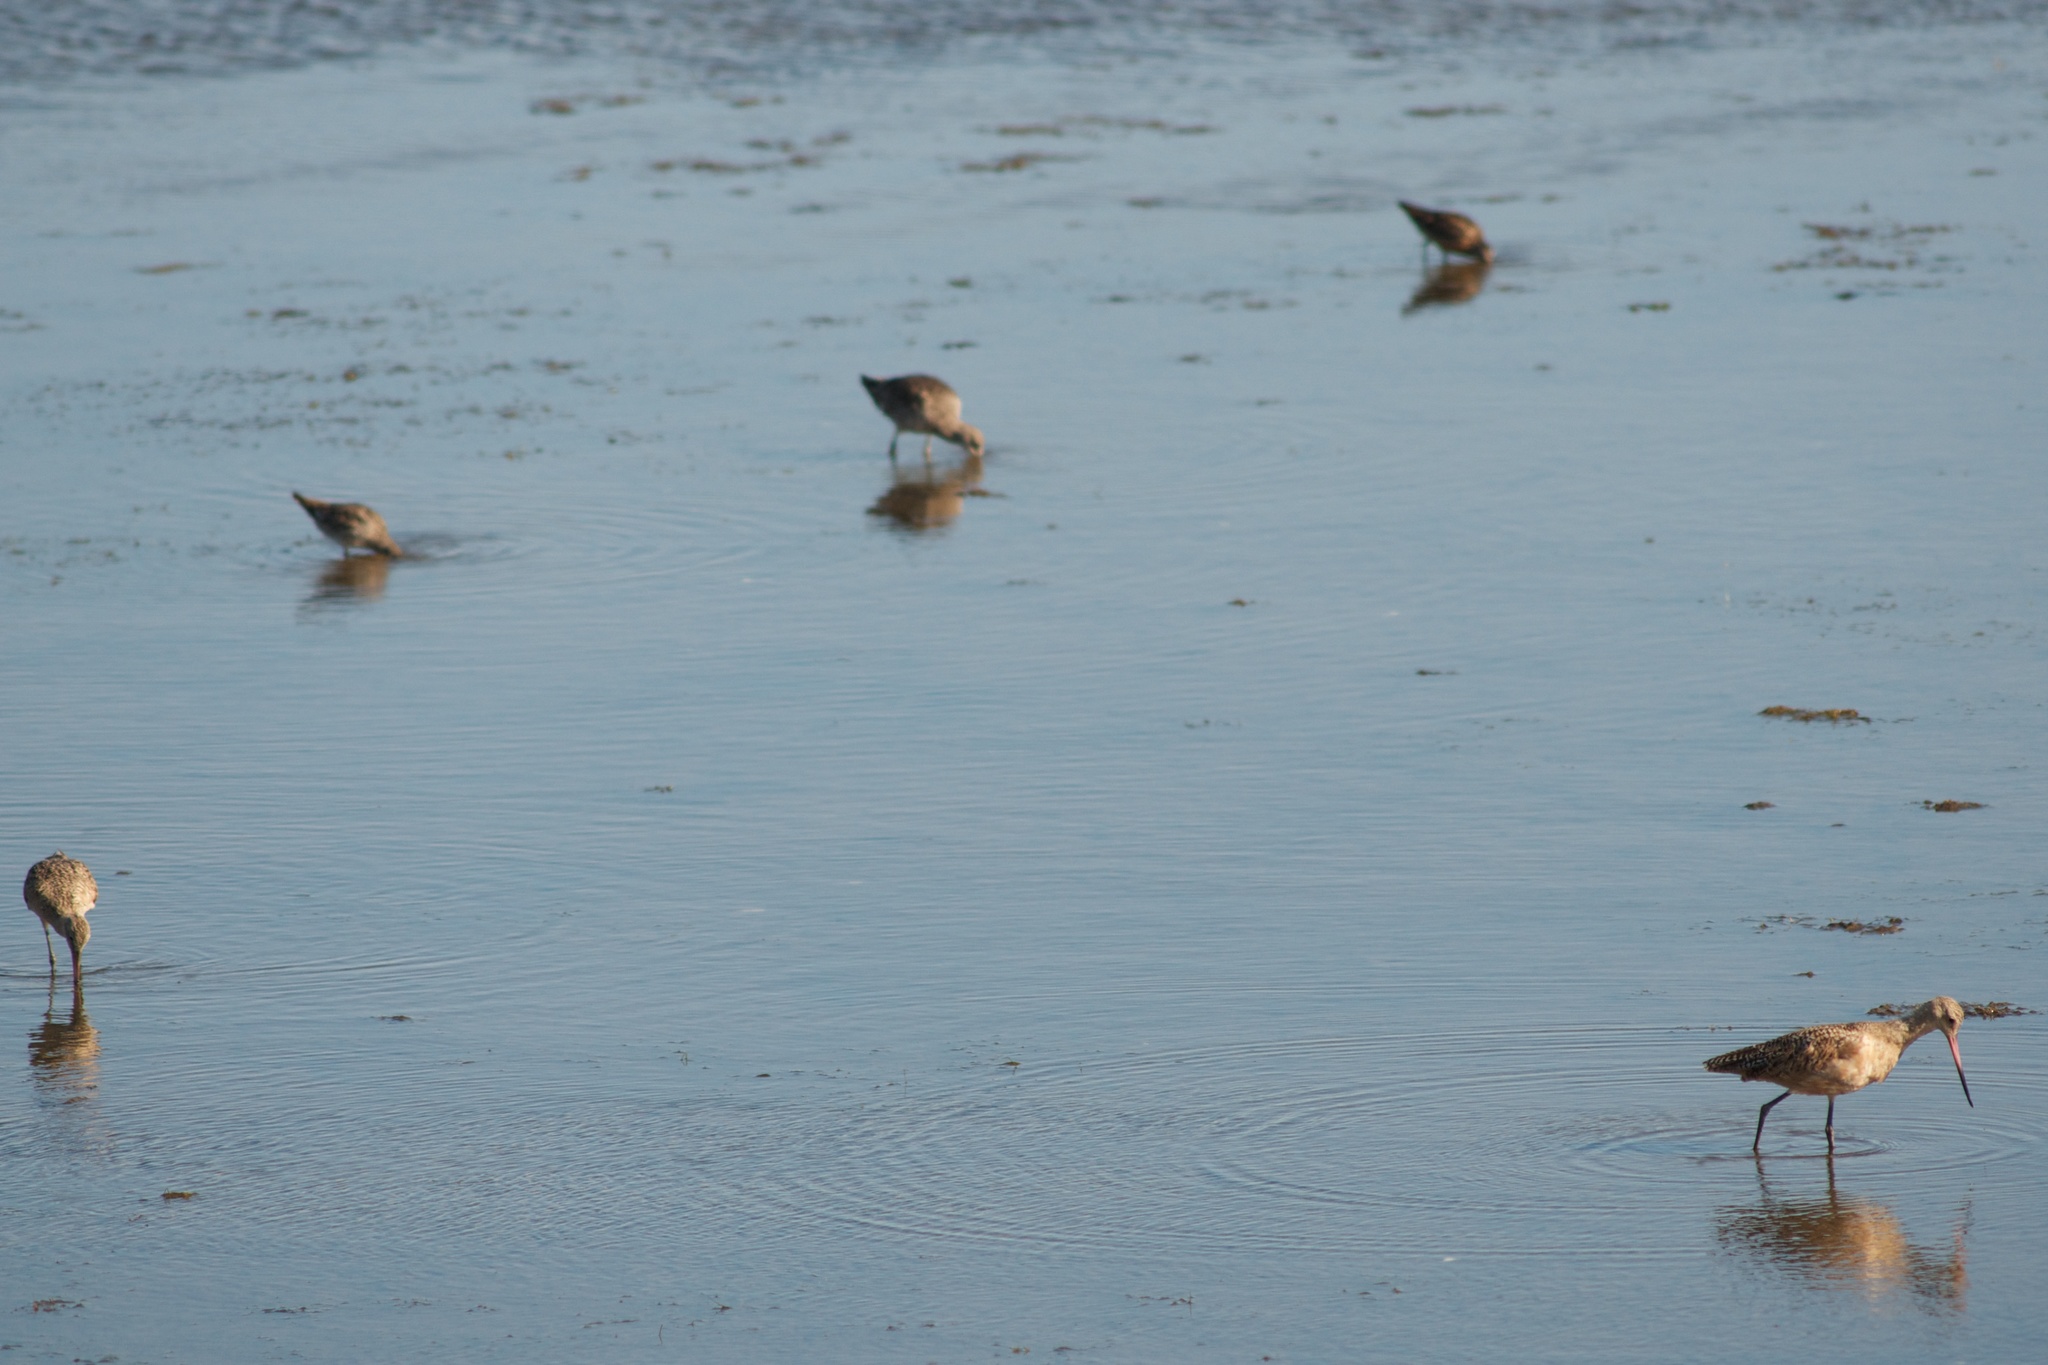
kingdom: Animalia
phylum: Chordata
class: Aves
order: Charadriiformes
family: Scolopacidae
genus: Limosa
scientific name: Limosa fedoa
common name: Marbled godwit
